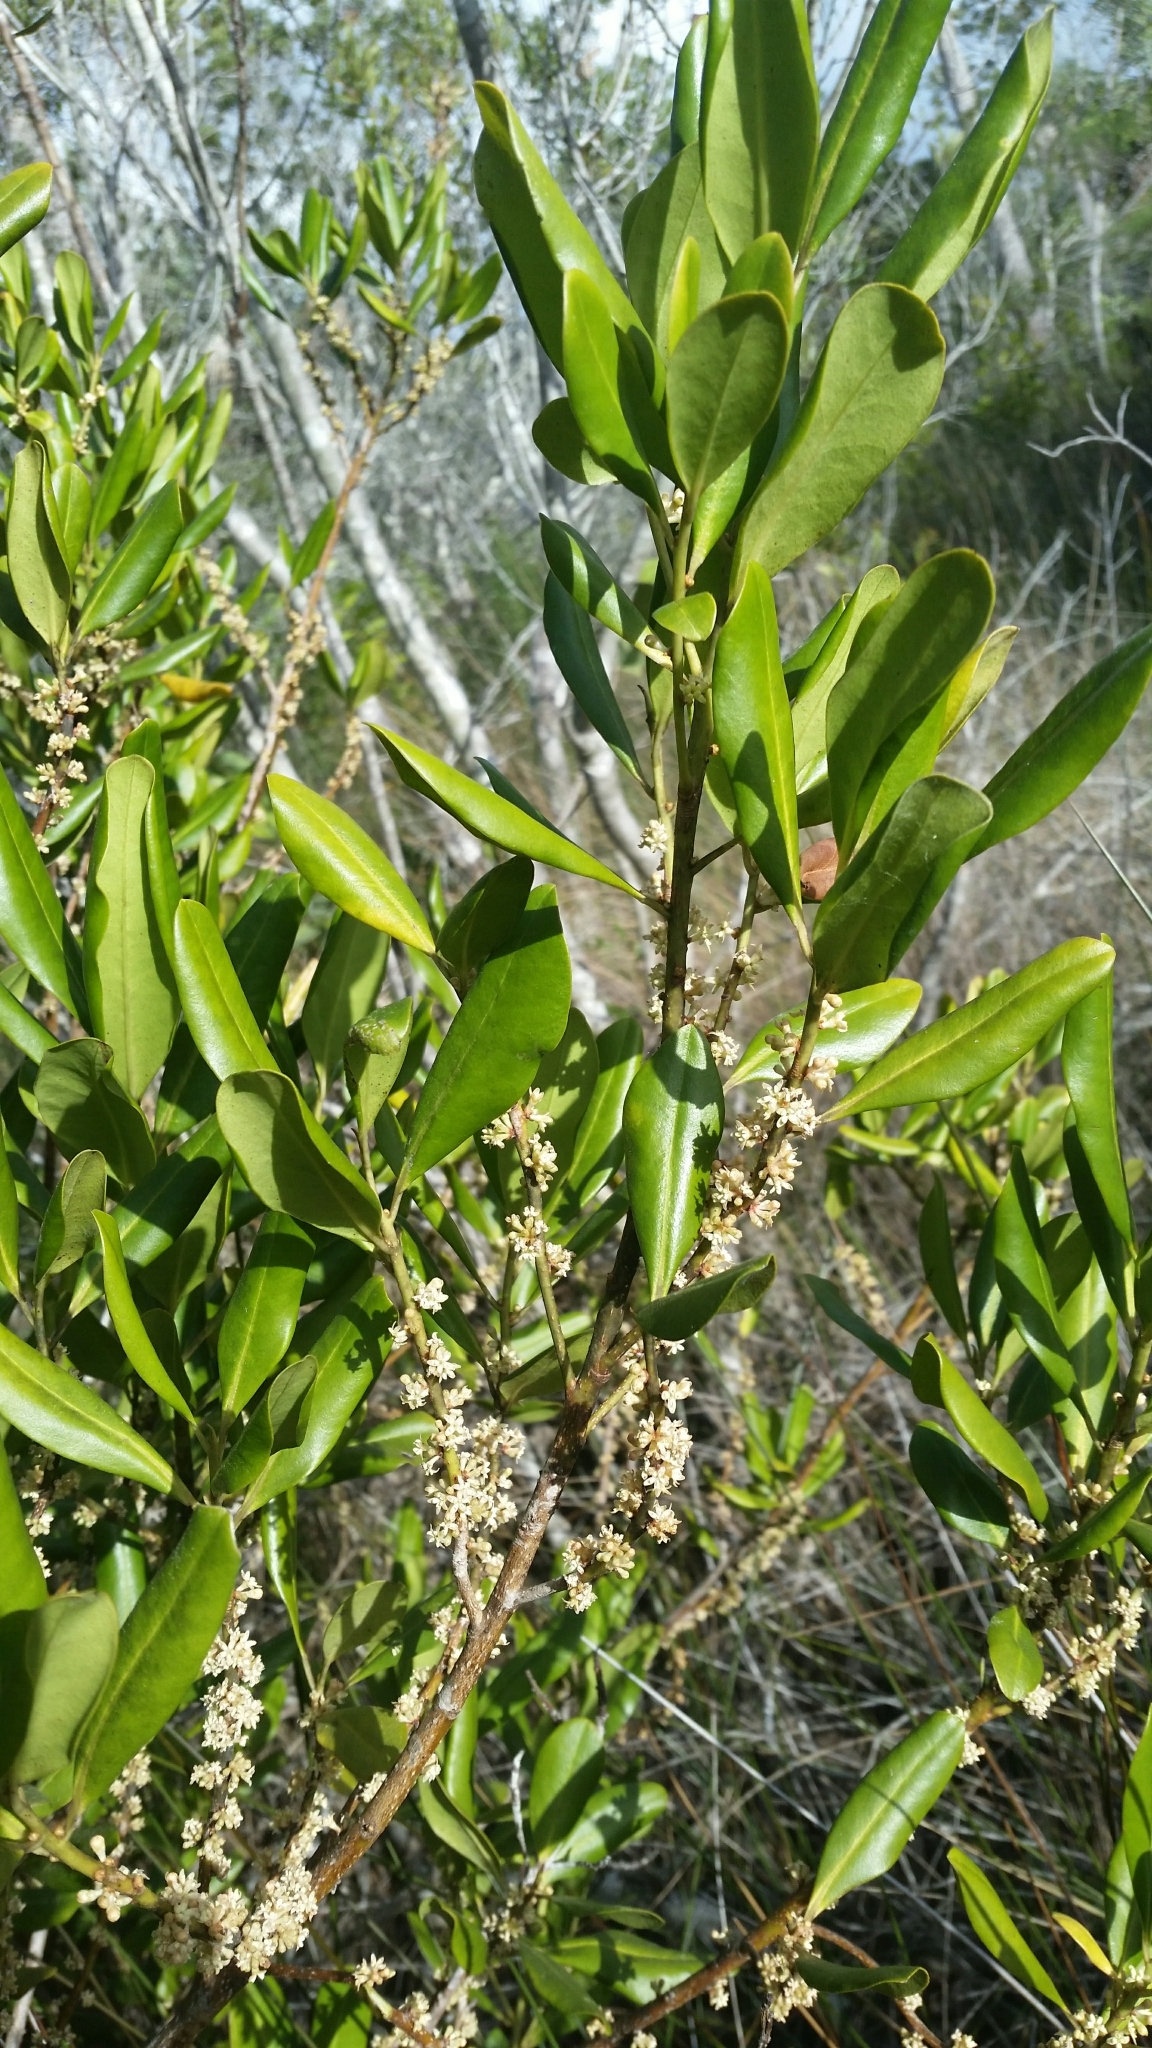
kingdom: Plantae
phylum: Tracheophyta
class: Magnoliopsida
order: Ericales
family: Primulaceae
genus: Myrsine
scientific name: Myrsine floridana
